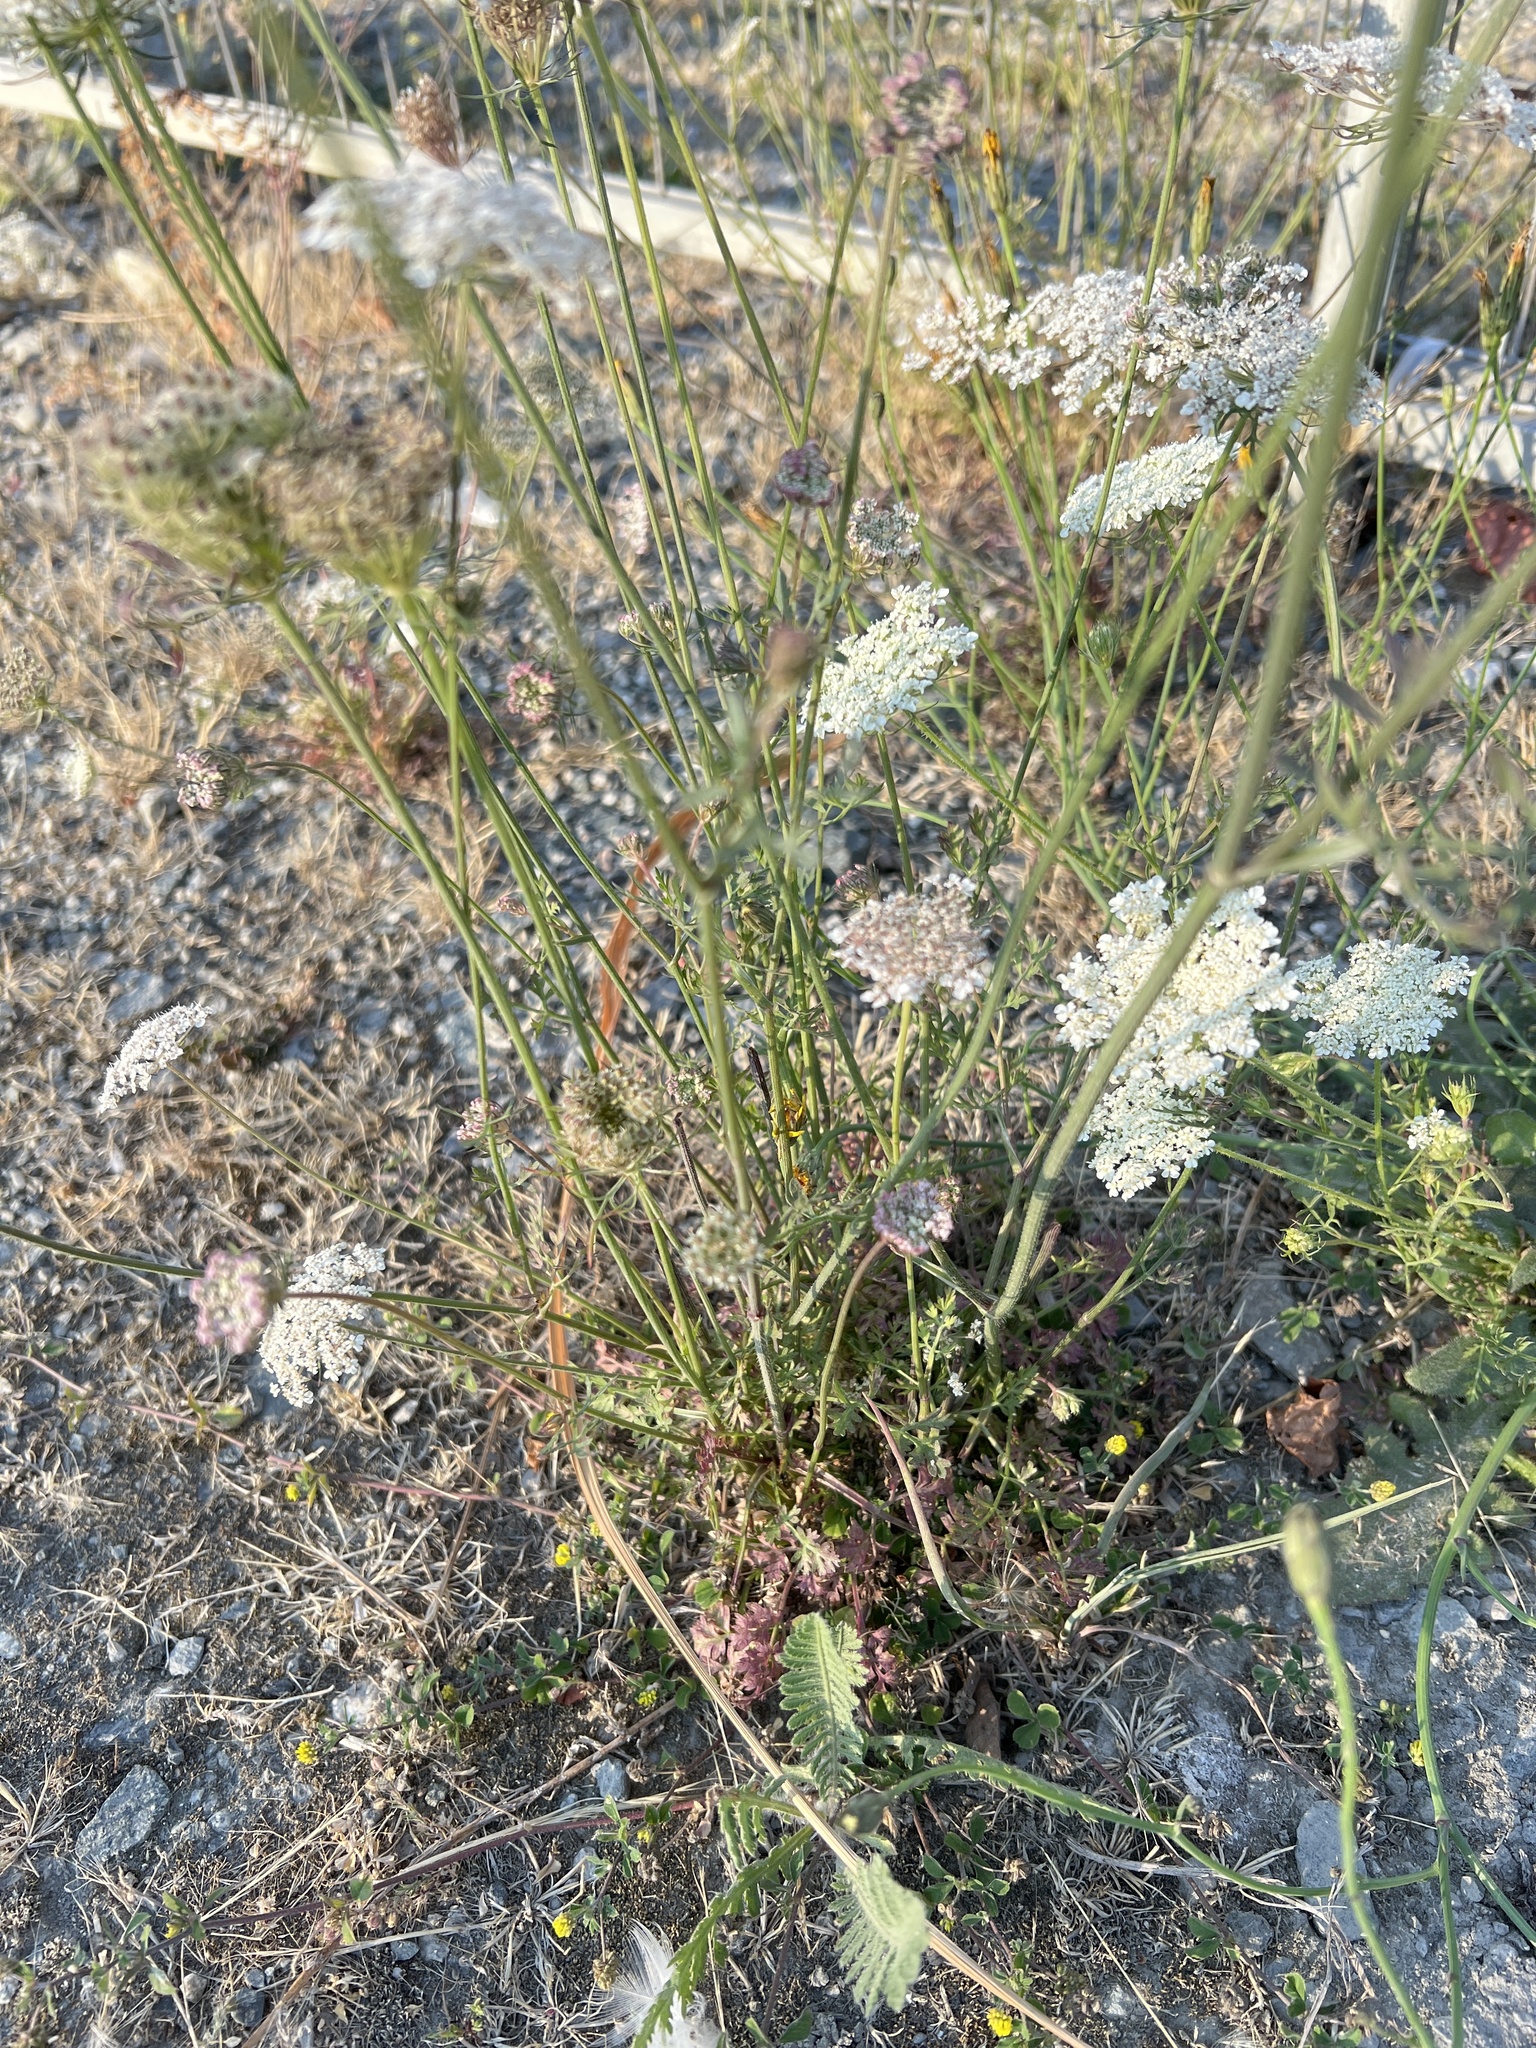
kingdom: Plantae
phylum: Tracheophyta
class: Magnoliopsida
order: Apiales
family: Apiaceae
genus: Daucus
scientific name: Daucus carota
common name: Wild carrot
